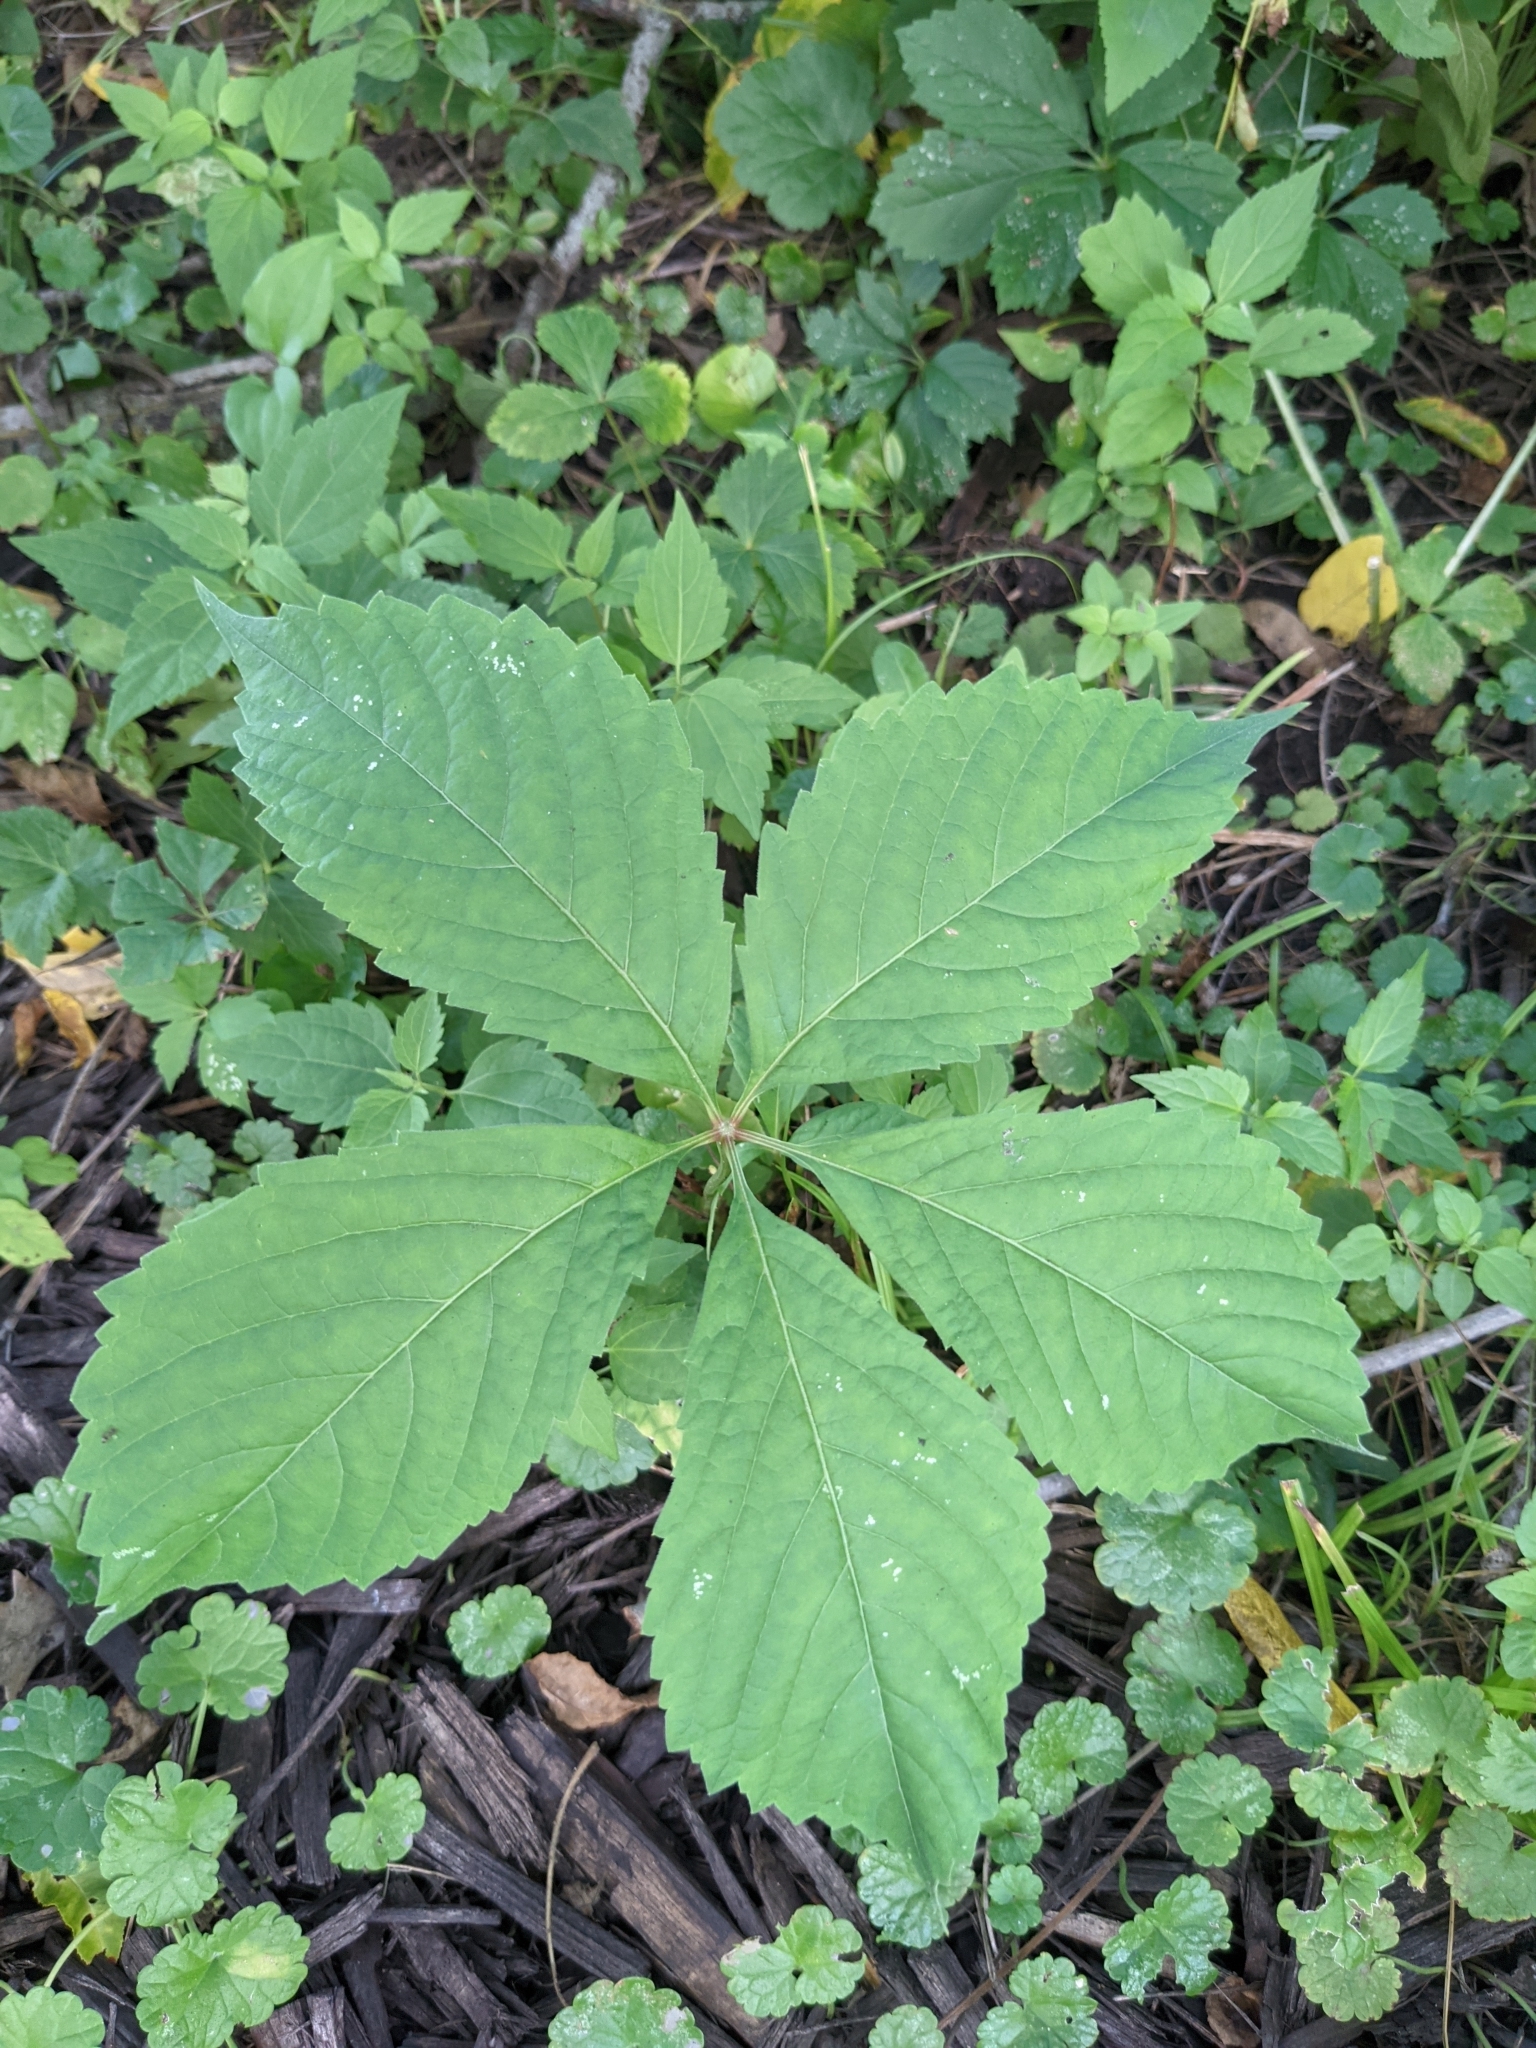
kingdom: Plantae
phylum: Tracheophyta
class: Magnoliopsida
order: Vitales
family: Vitaceae
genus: Parthenocissus
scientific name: Parthenocissus quinquefolia
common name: Virginia-creeper
